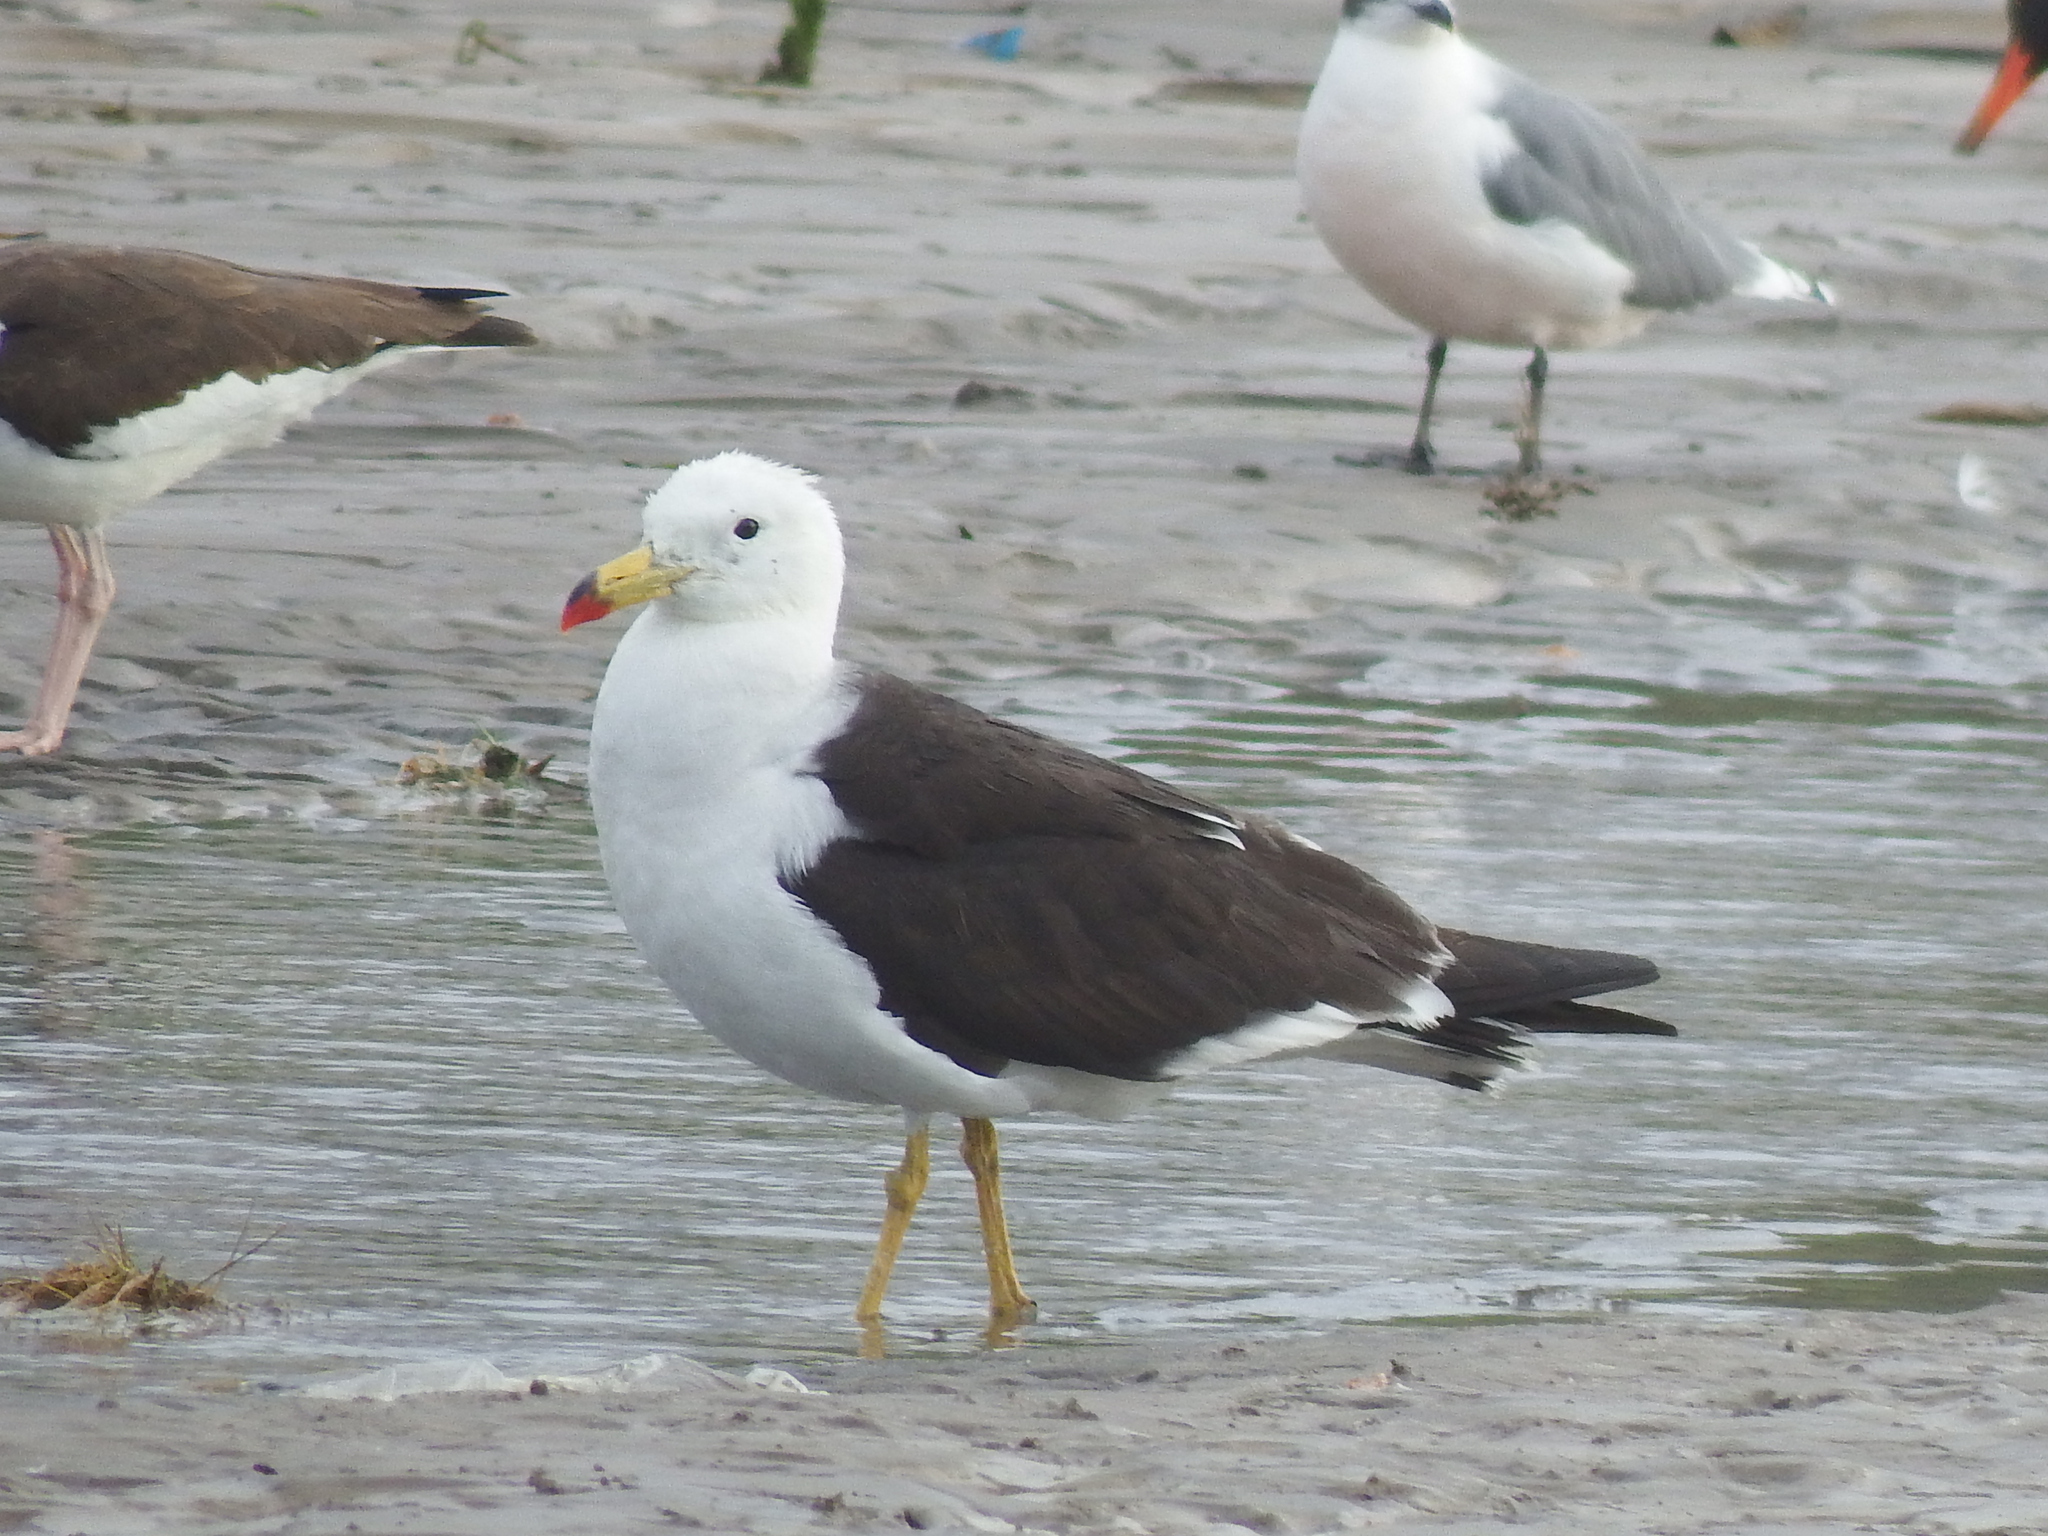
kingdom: Animalia
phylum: Chordata
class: Aves
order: Charadriiformes
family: Laridae
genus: Larus
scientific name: Larus belcheri
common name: Belcher's gull
